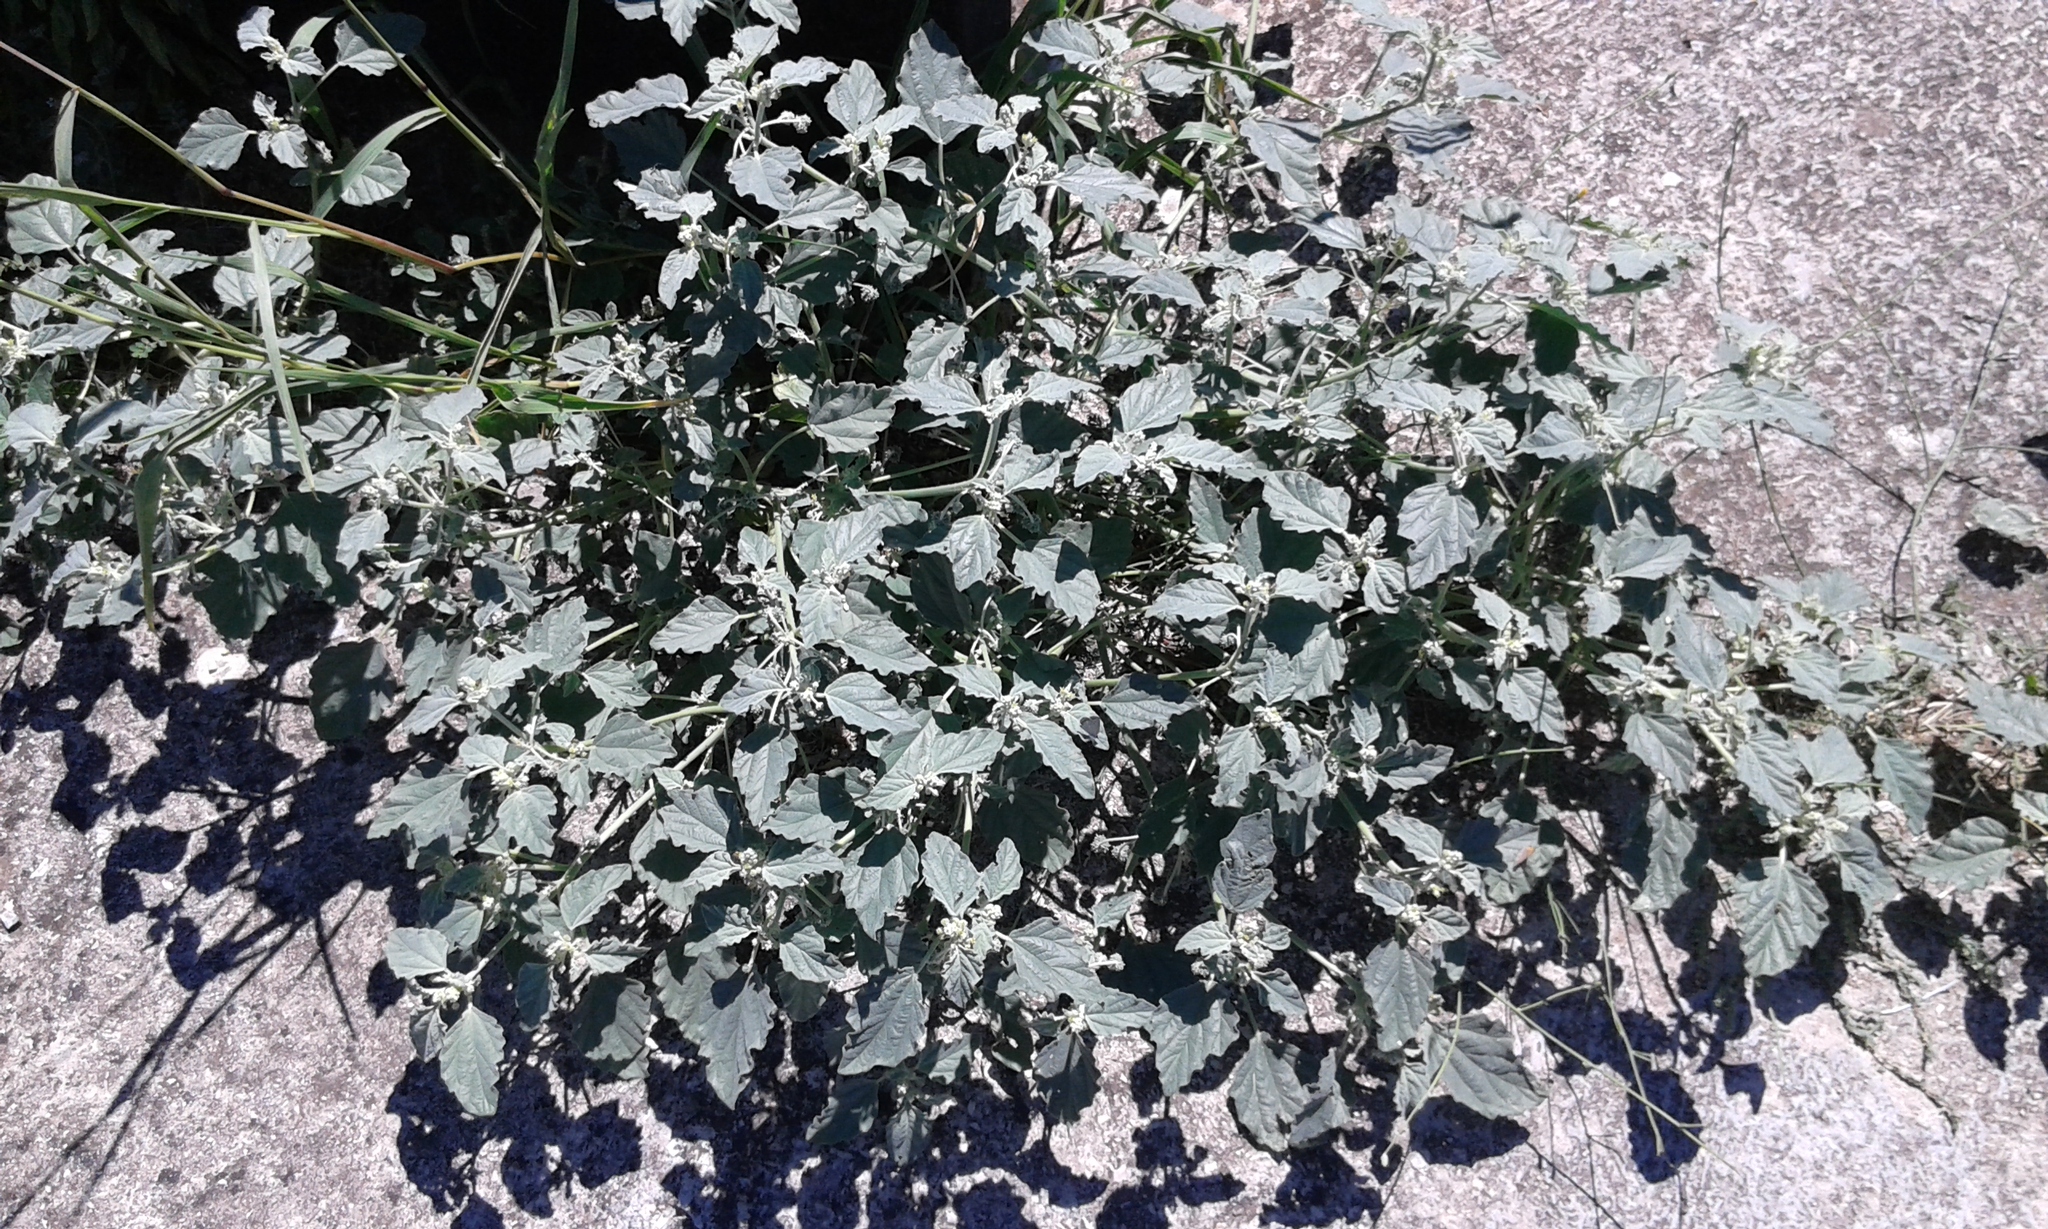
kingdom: Plantae
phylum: Tracheophyta
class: Magnoliopsida
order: Malpighiales
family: Euphorbiaceae
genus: Chrozophora
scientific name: Chrozophora tinctoria
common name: Dyer's litmus
